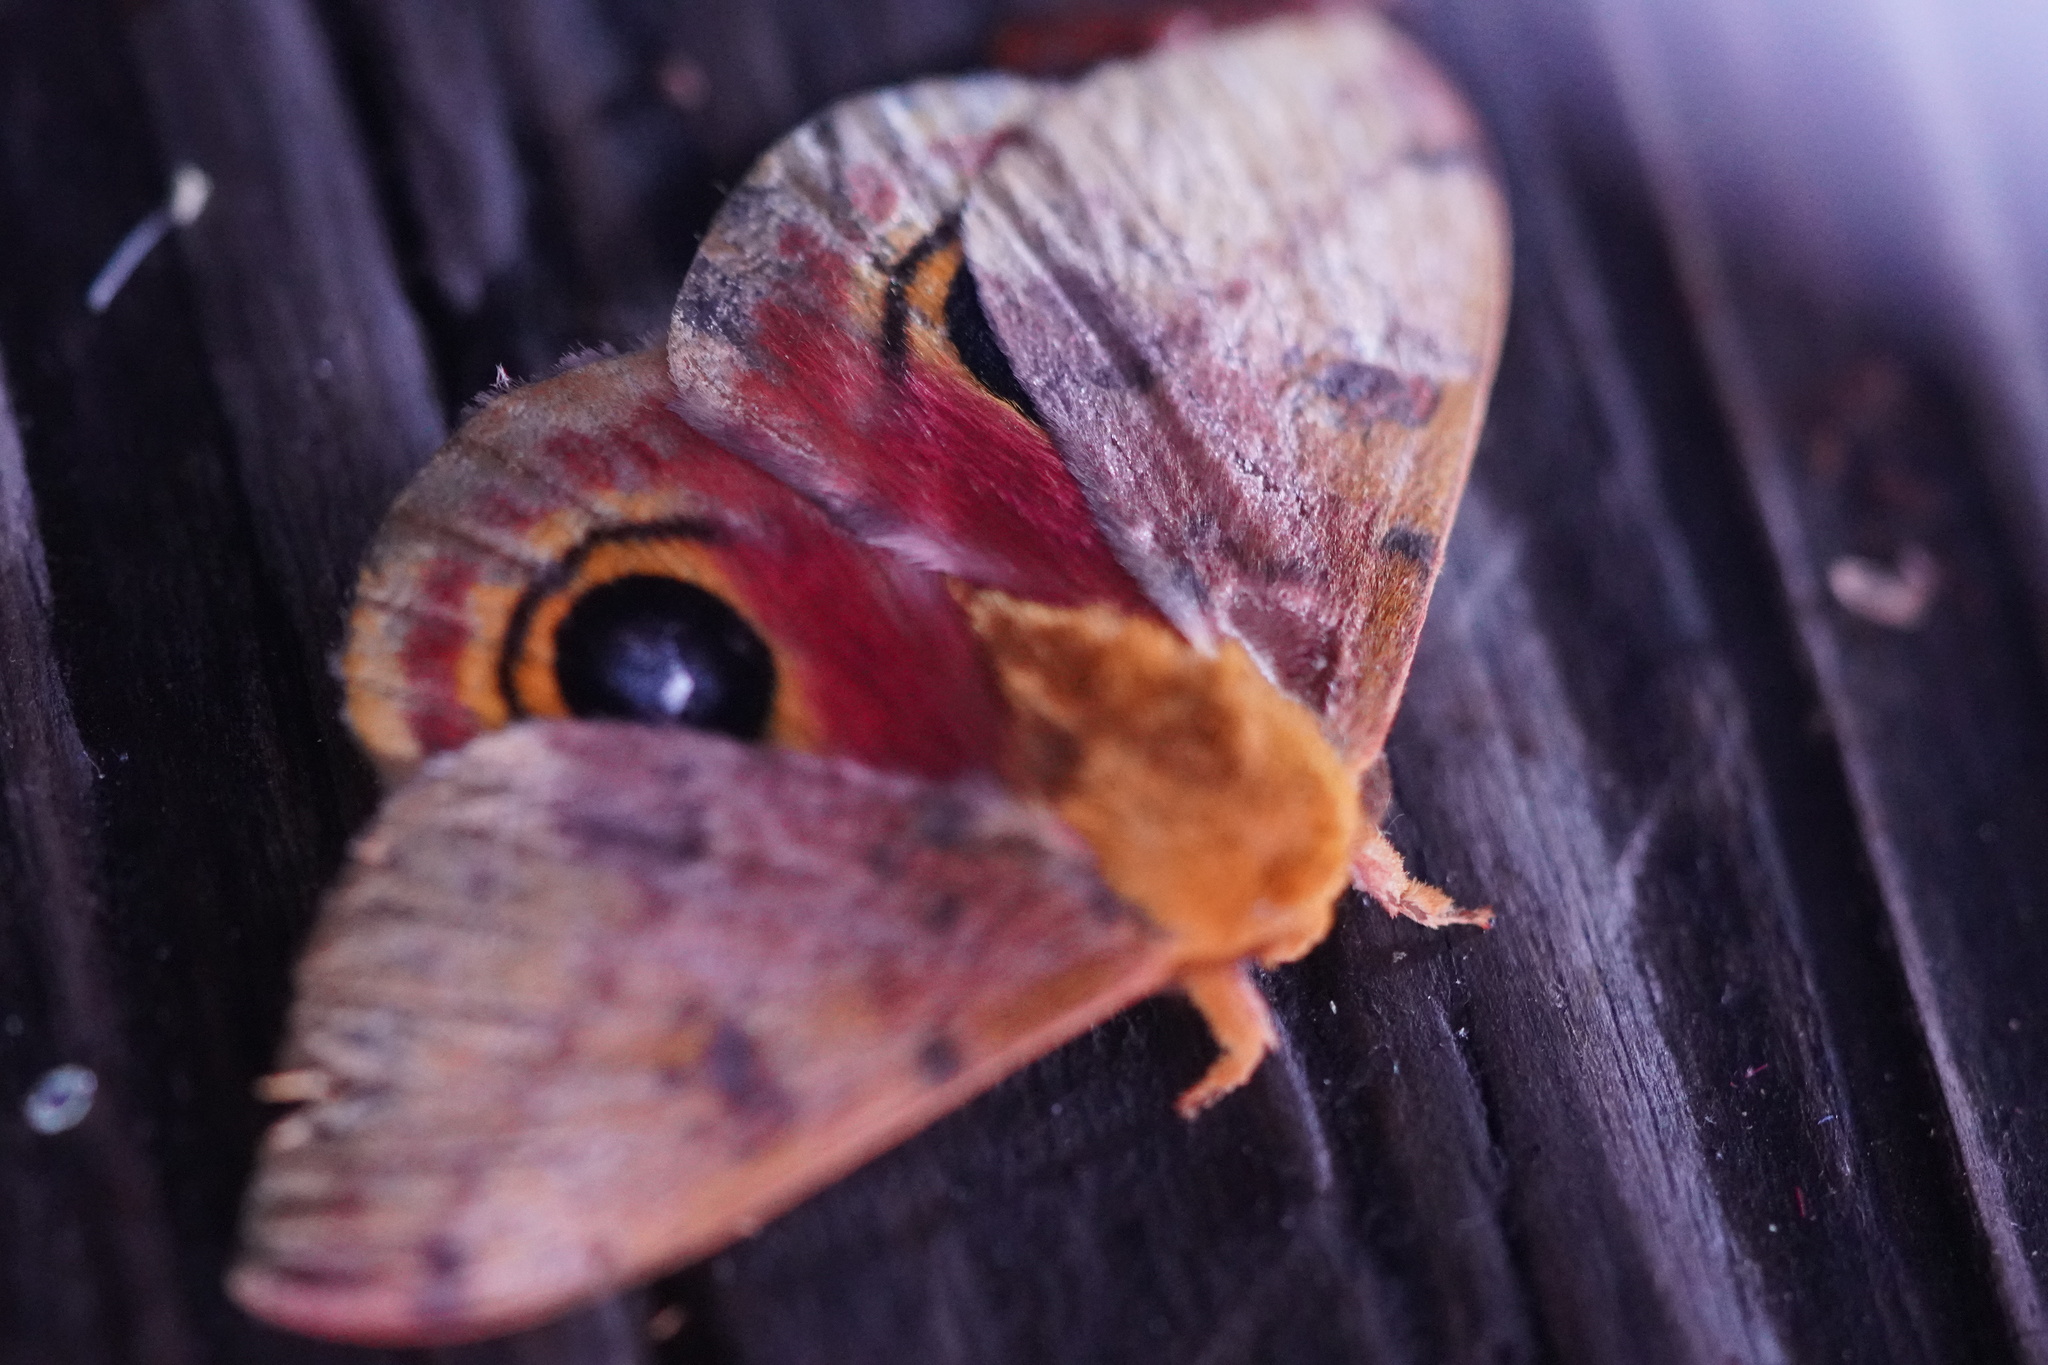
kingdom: Animalia
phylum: Arthropoda
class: Insecta
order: Lepidoptera
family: Saturniidae
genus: Automeris
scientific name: Automeris io
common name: Io moth
